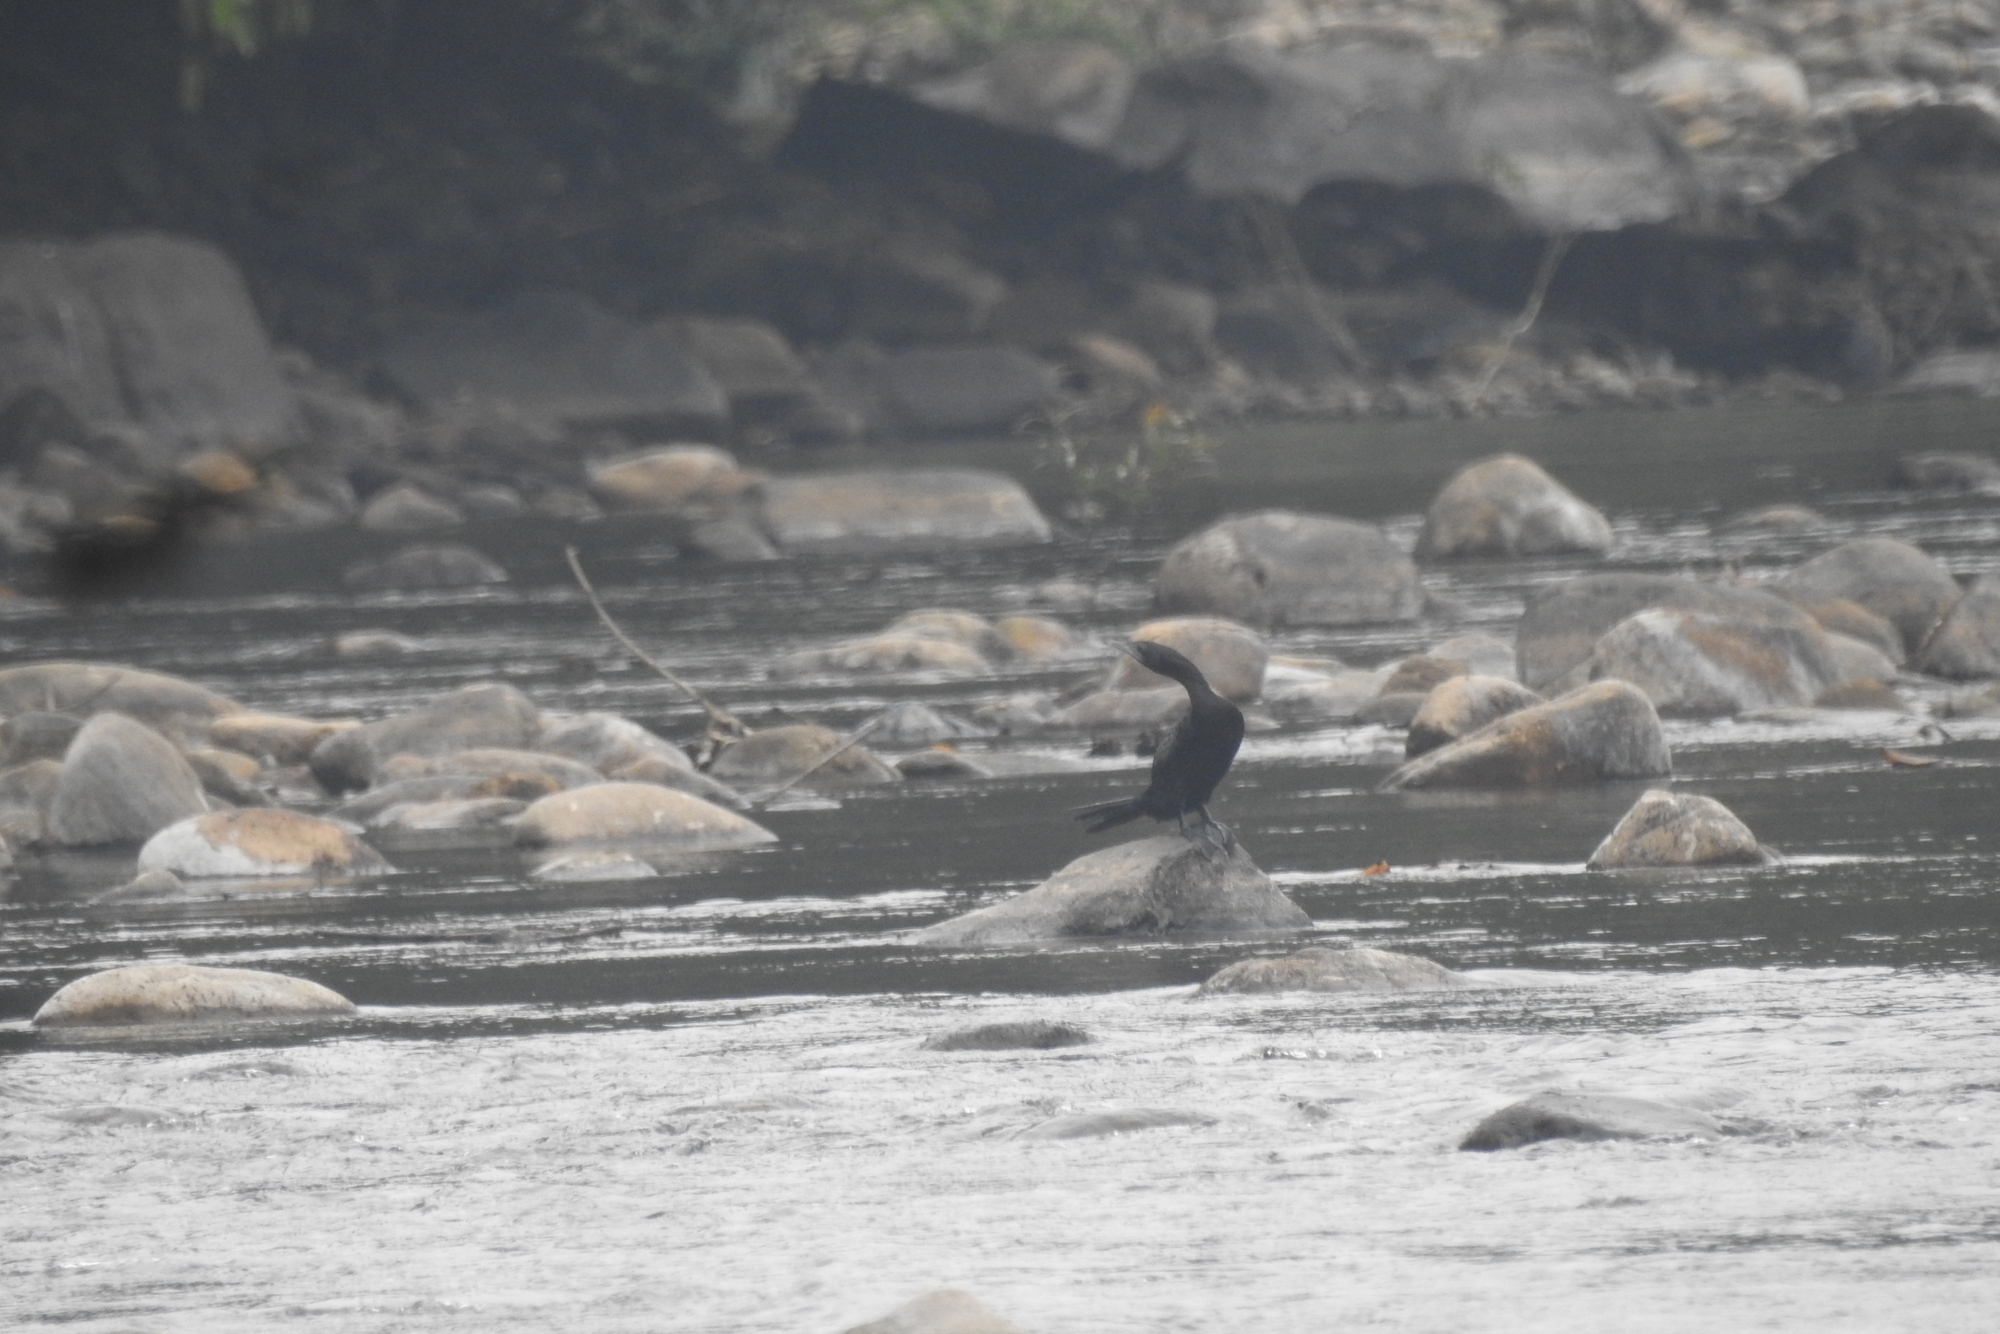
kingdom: Animalia
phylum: Chordata
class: Aves
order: Suliformes
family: Phalacrocoracidae
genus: Microcarbo
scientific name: Microcarbo niger
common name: Little cormorant
